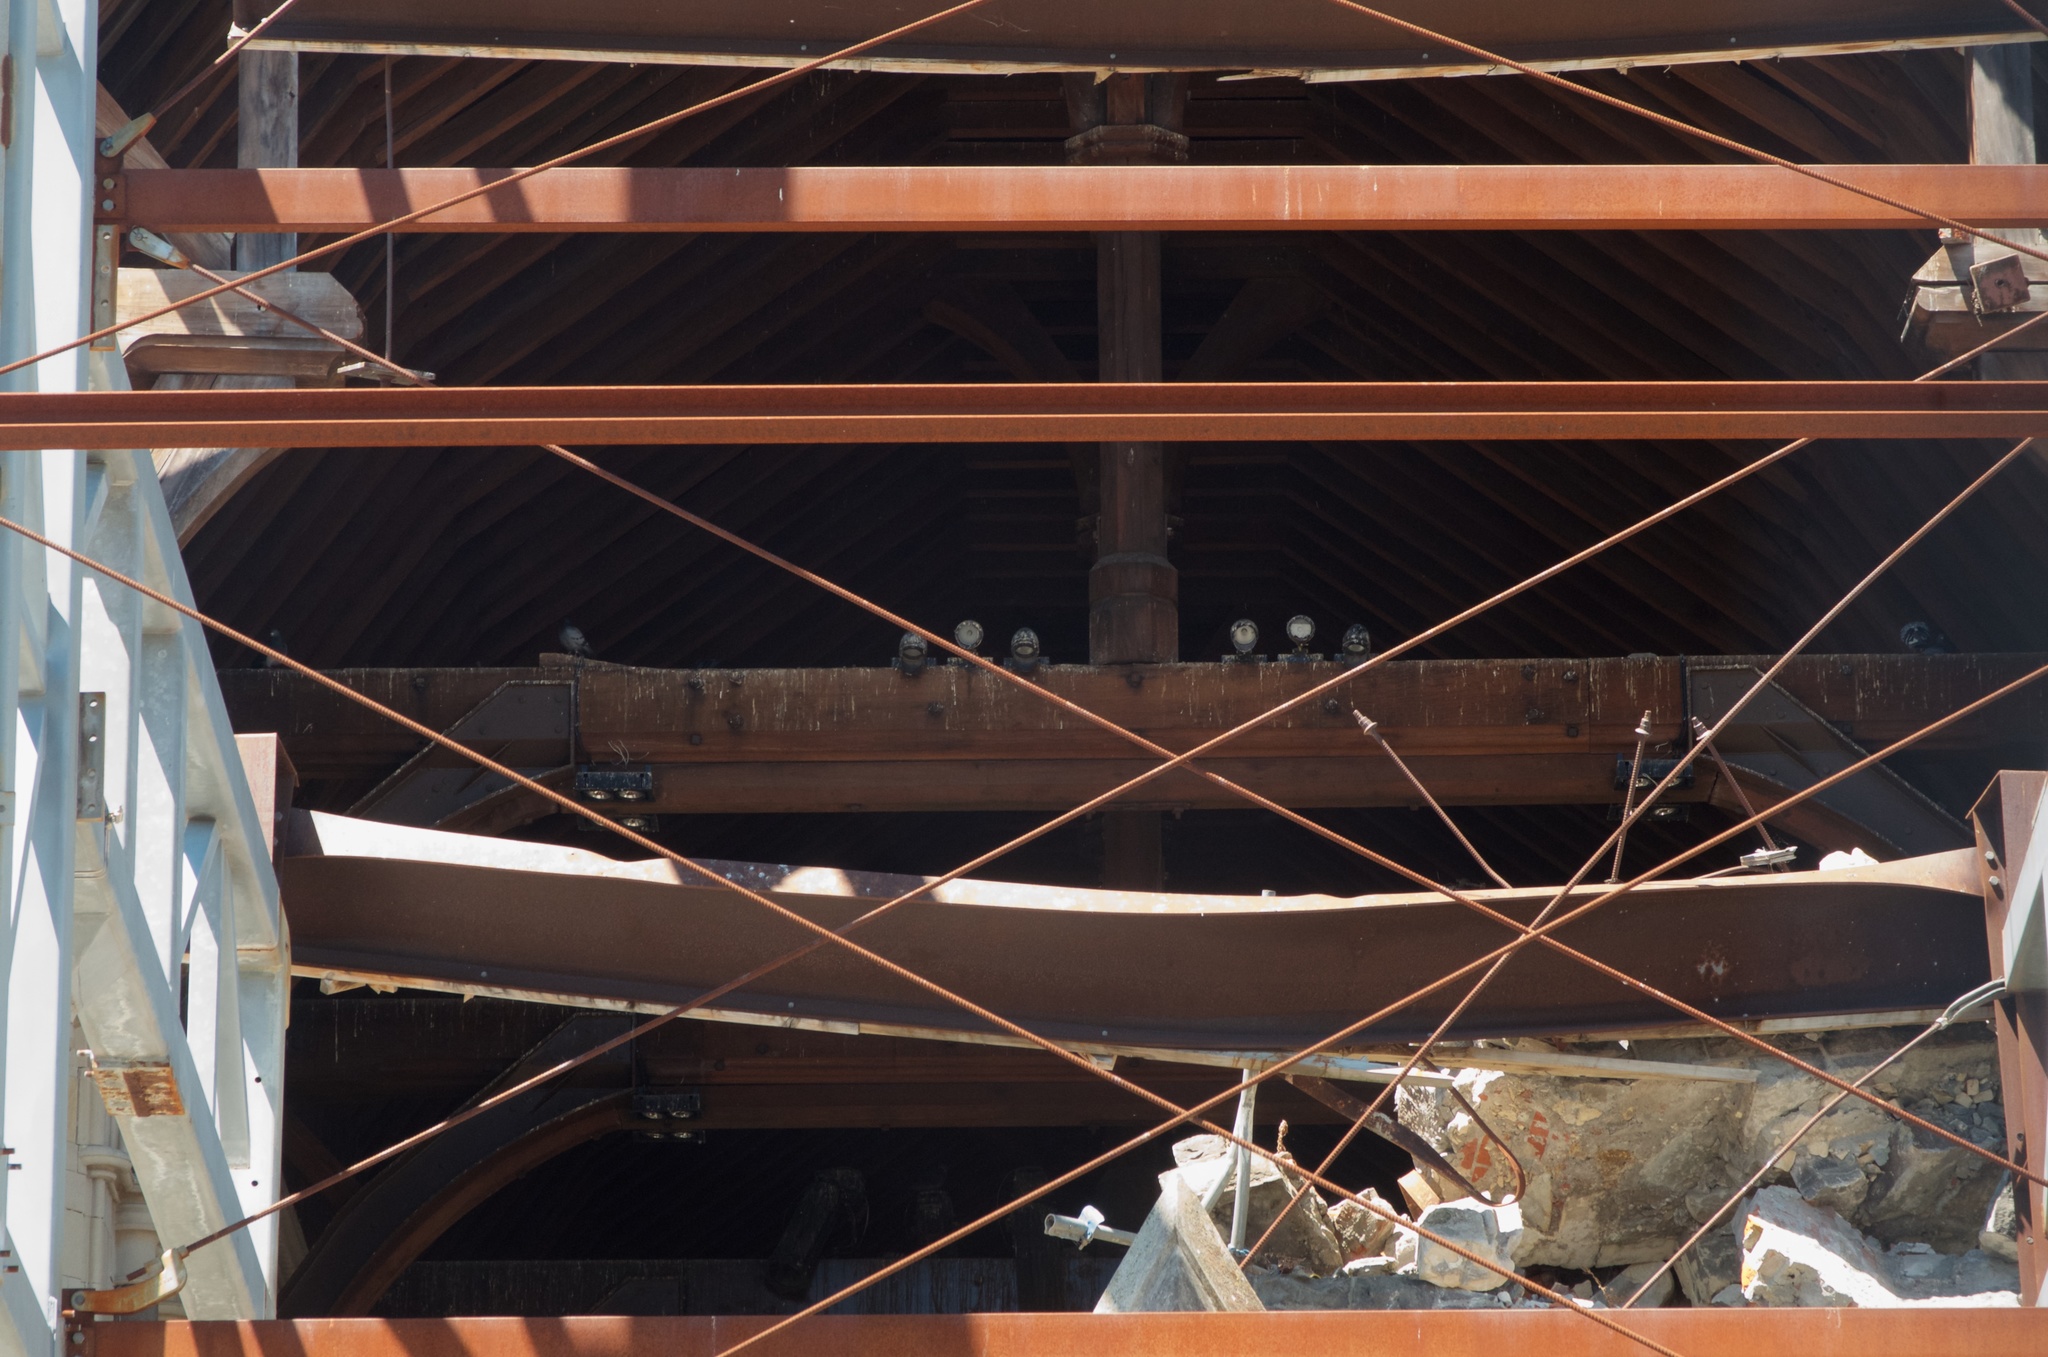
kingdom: Animalia
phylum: Chordata
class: Aves
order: Columbiformes
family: Columbidae
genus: Columba
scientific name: Columba livia
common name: Rock pigeon
